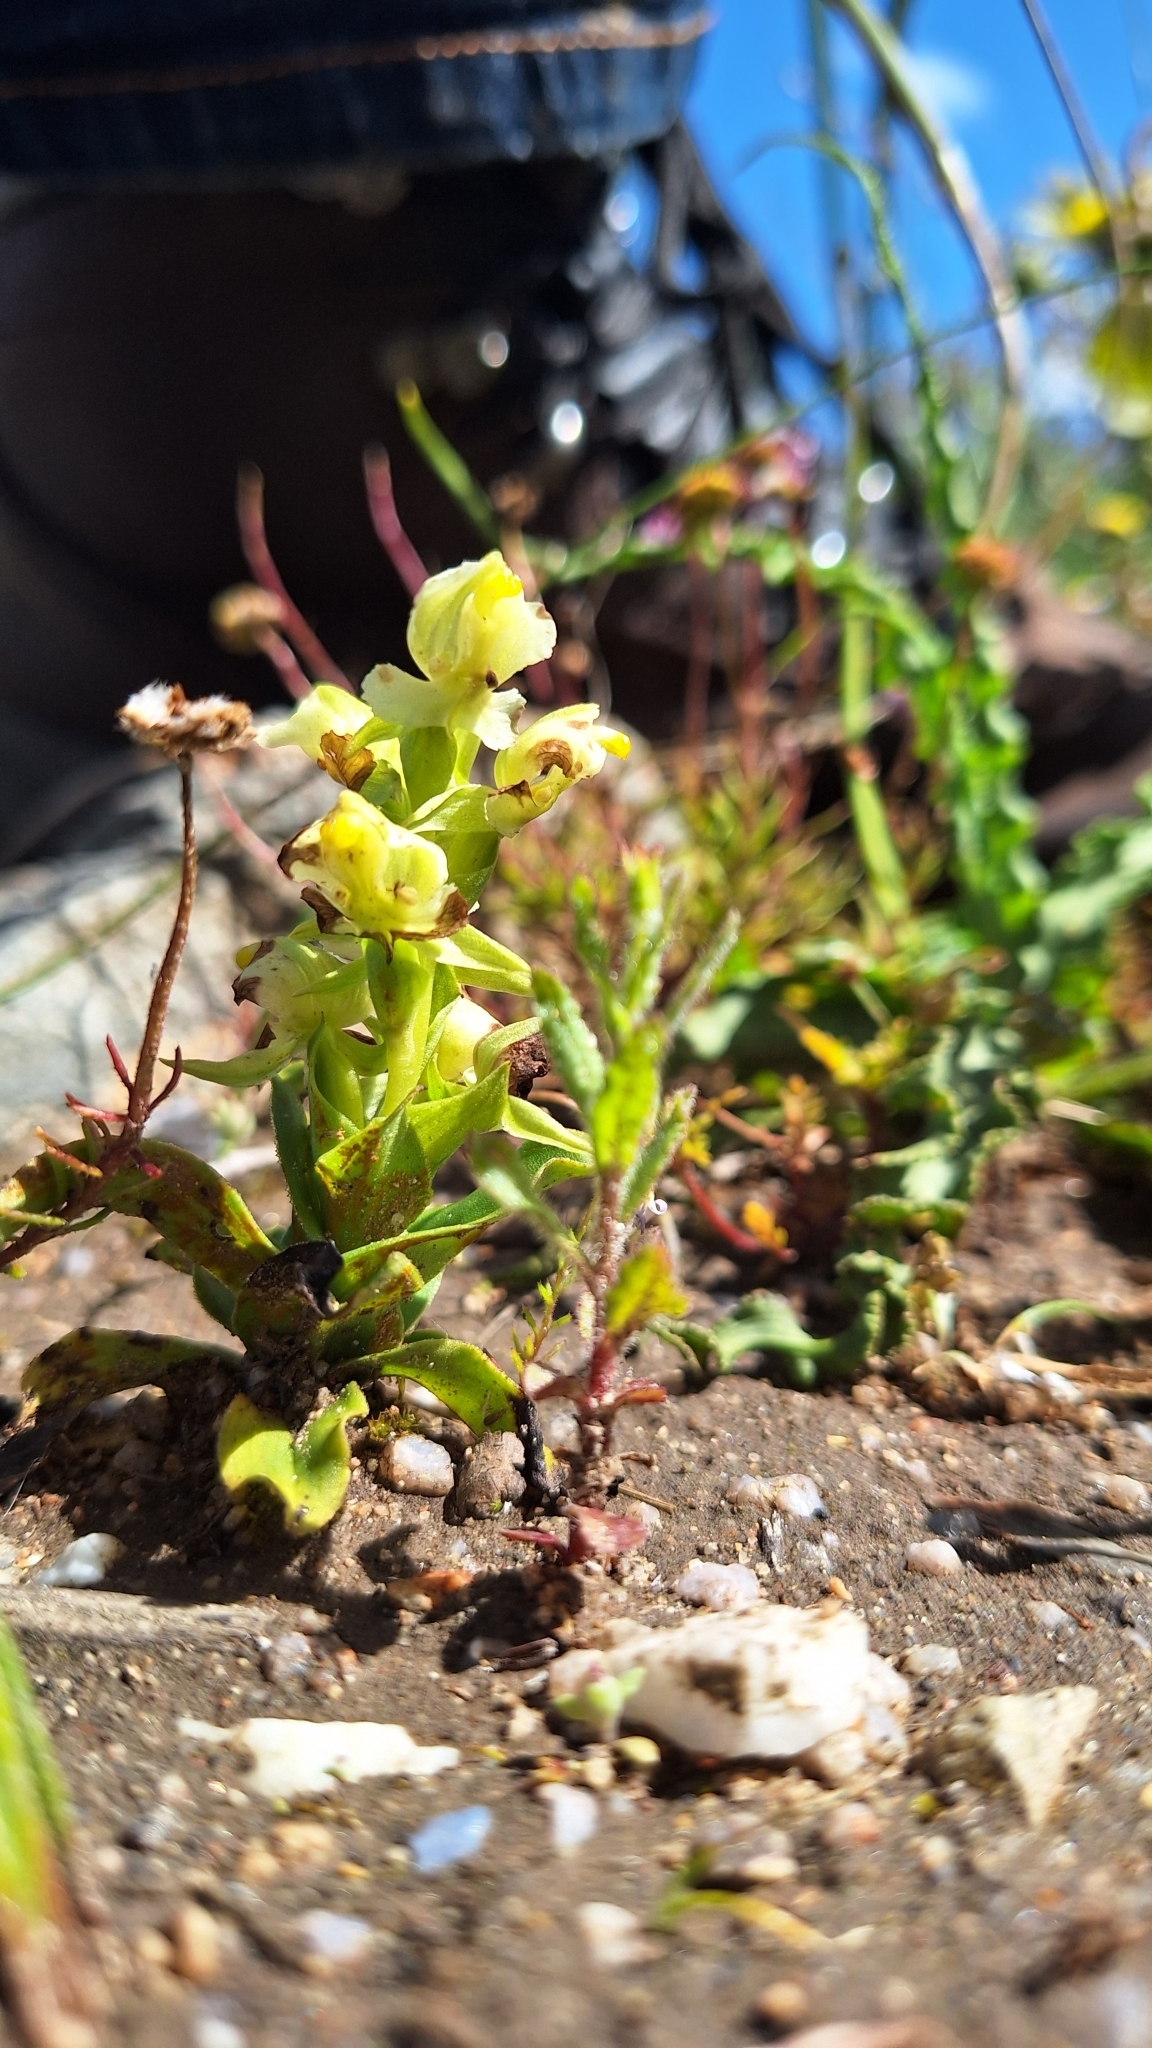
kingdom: Plantae
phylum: Tracheophyta
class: Liliopsida
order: Asparagales
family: Orchidaceae
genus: Pterygodium
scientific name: Pterygodium alatum
